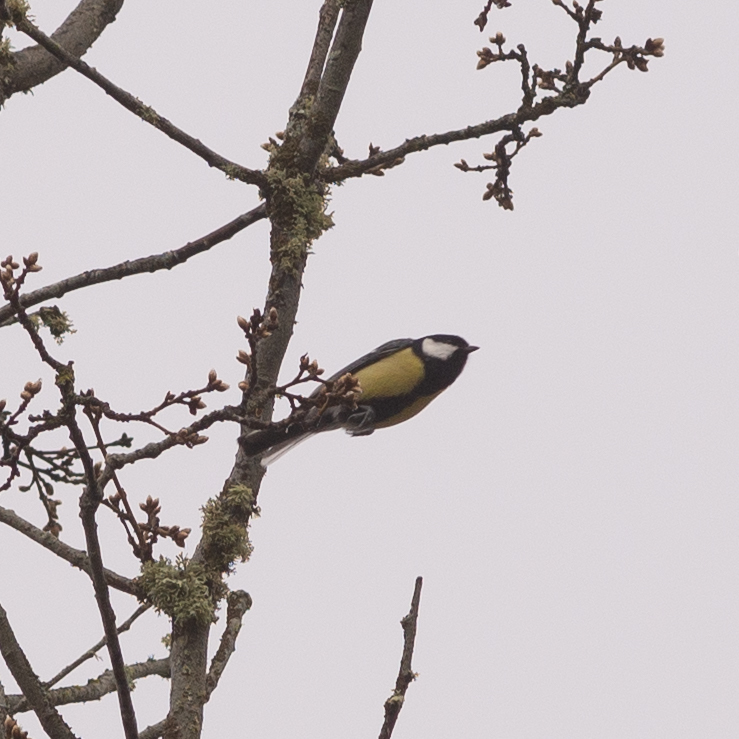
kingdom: Animalia
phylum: Chordata
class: Aves
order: Passeriformes
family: Paridae
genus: Parus
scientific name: Parus major
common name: Great tit
